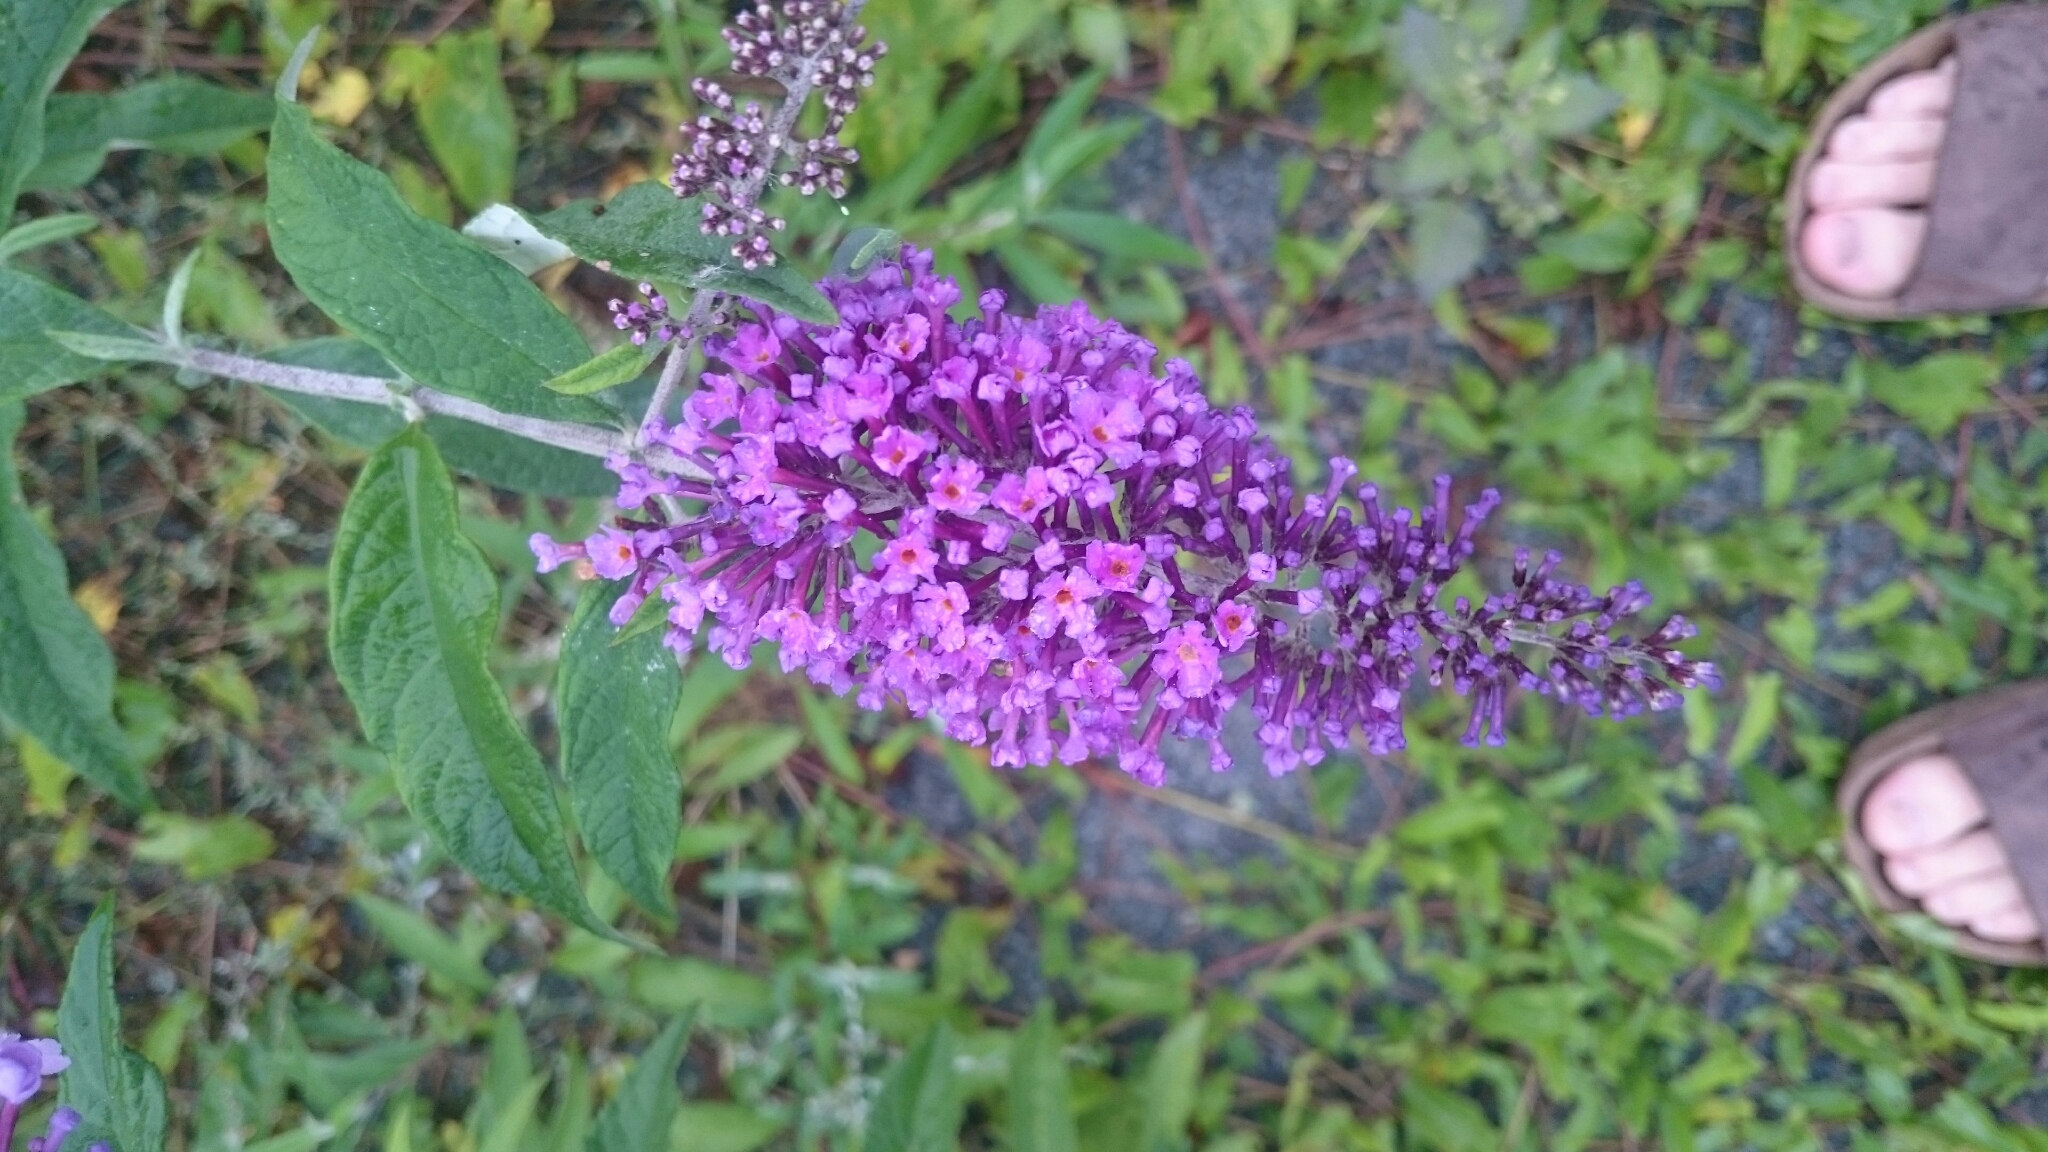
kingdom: Plantae
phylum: Tracheophyta
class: Magnoliopsida
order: Lamiales
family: Scrophulariaceae
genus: Buddleja
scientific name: Buddleja davidii
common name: Butterfly-bush
